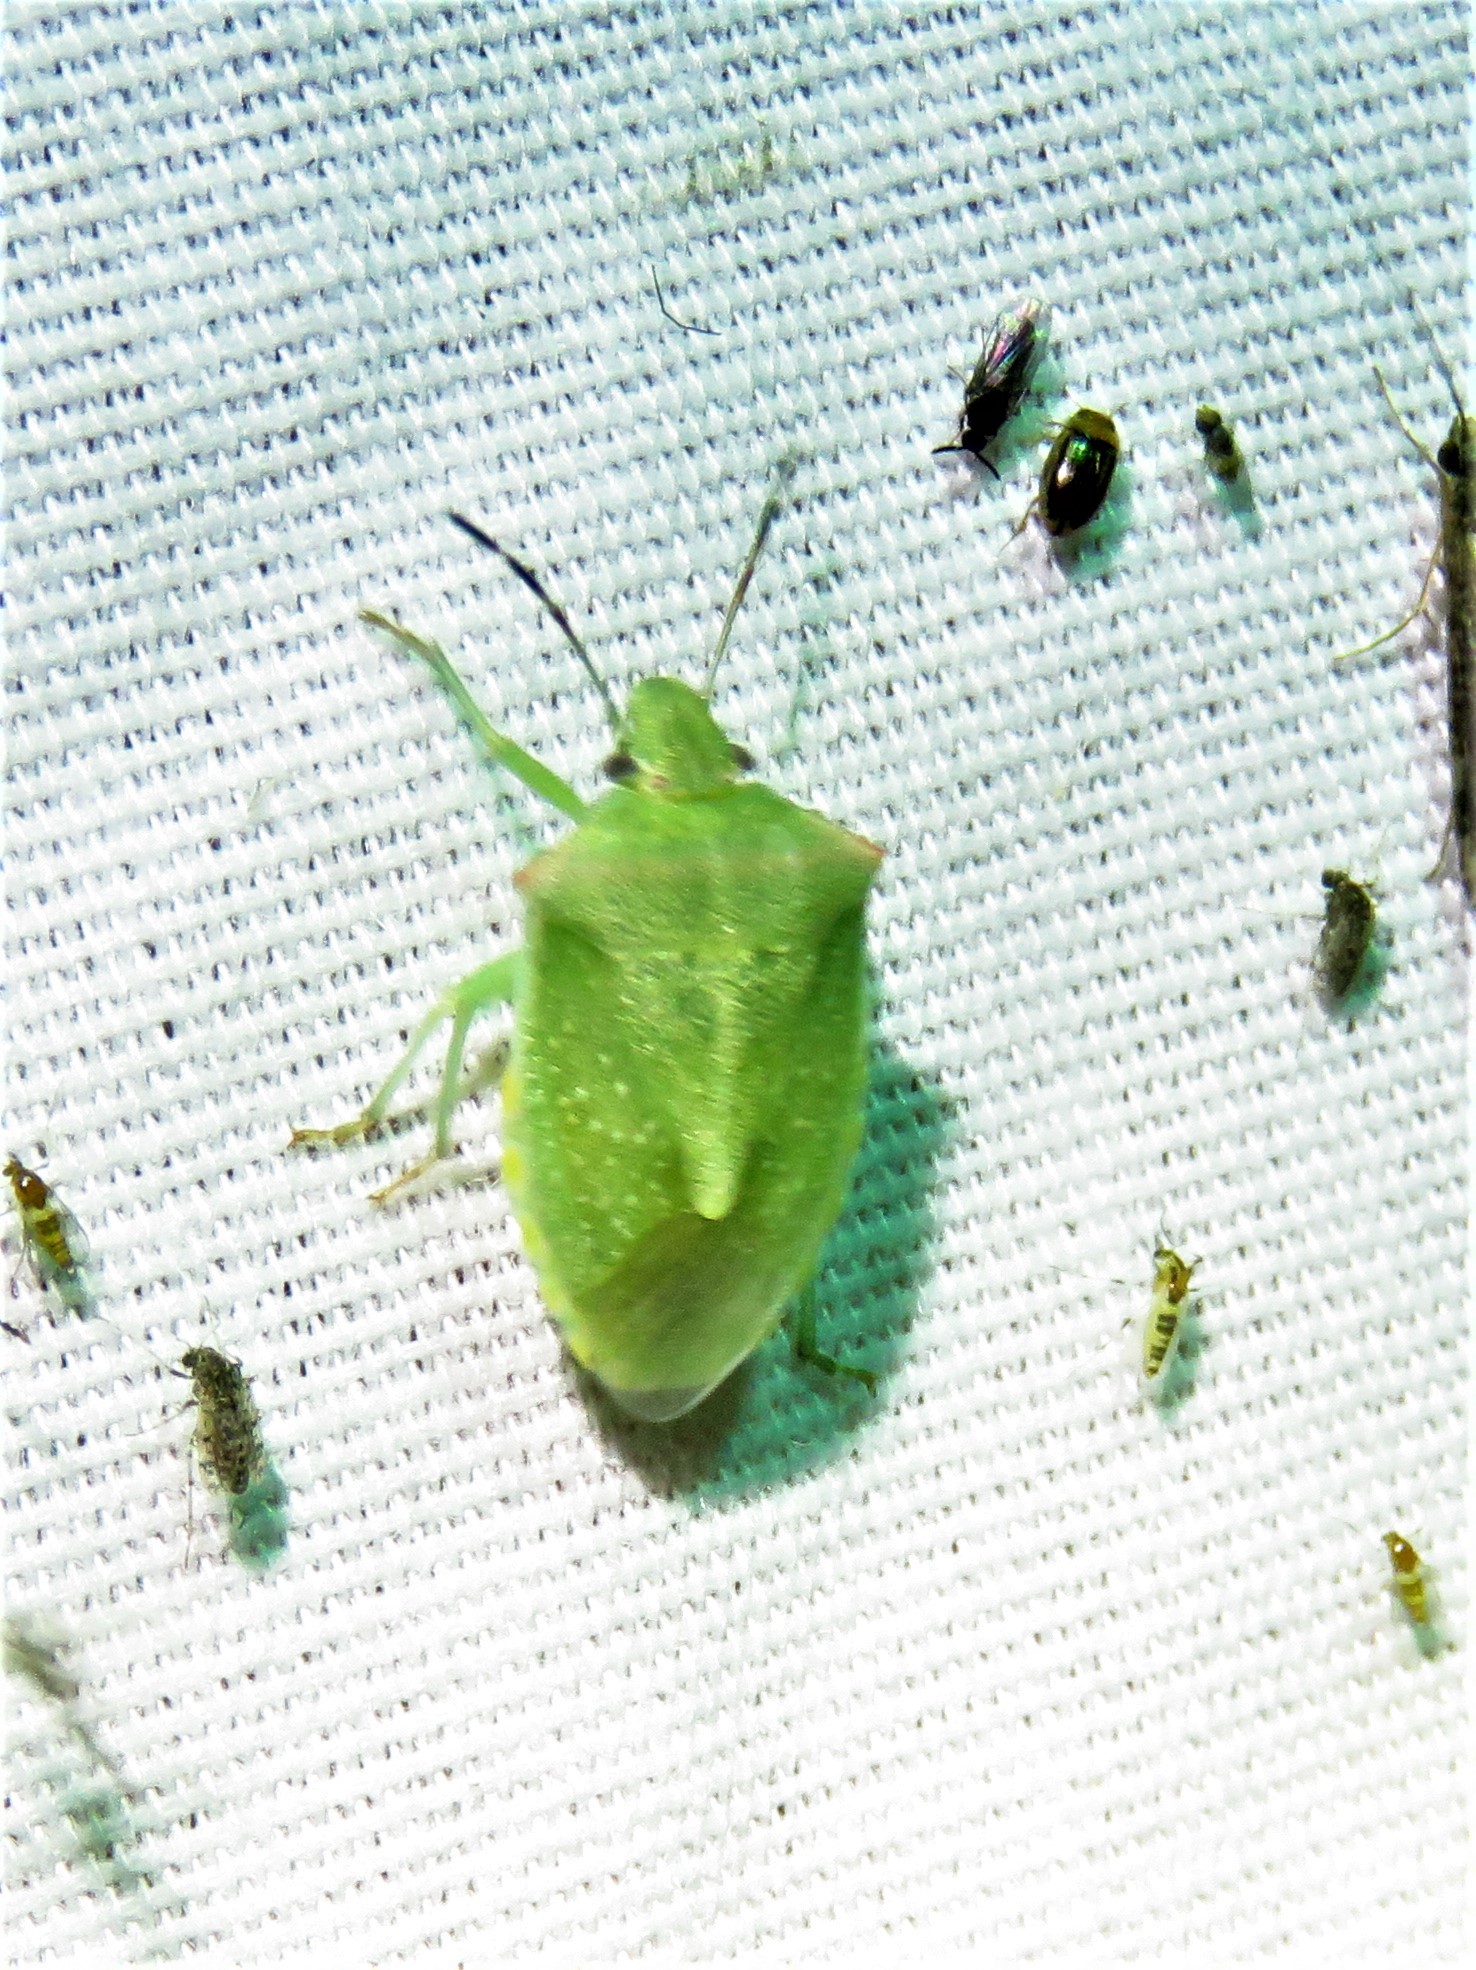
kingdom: Animalia
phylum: Arthropoda
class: Insecta
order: Hemiptera
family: Pentatomidae
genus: Thyanta
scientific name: Thyanta custator
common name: Stink bug
